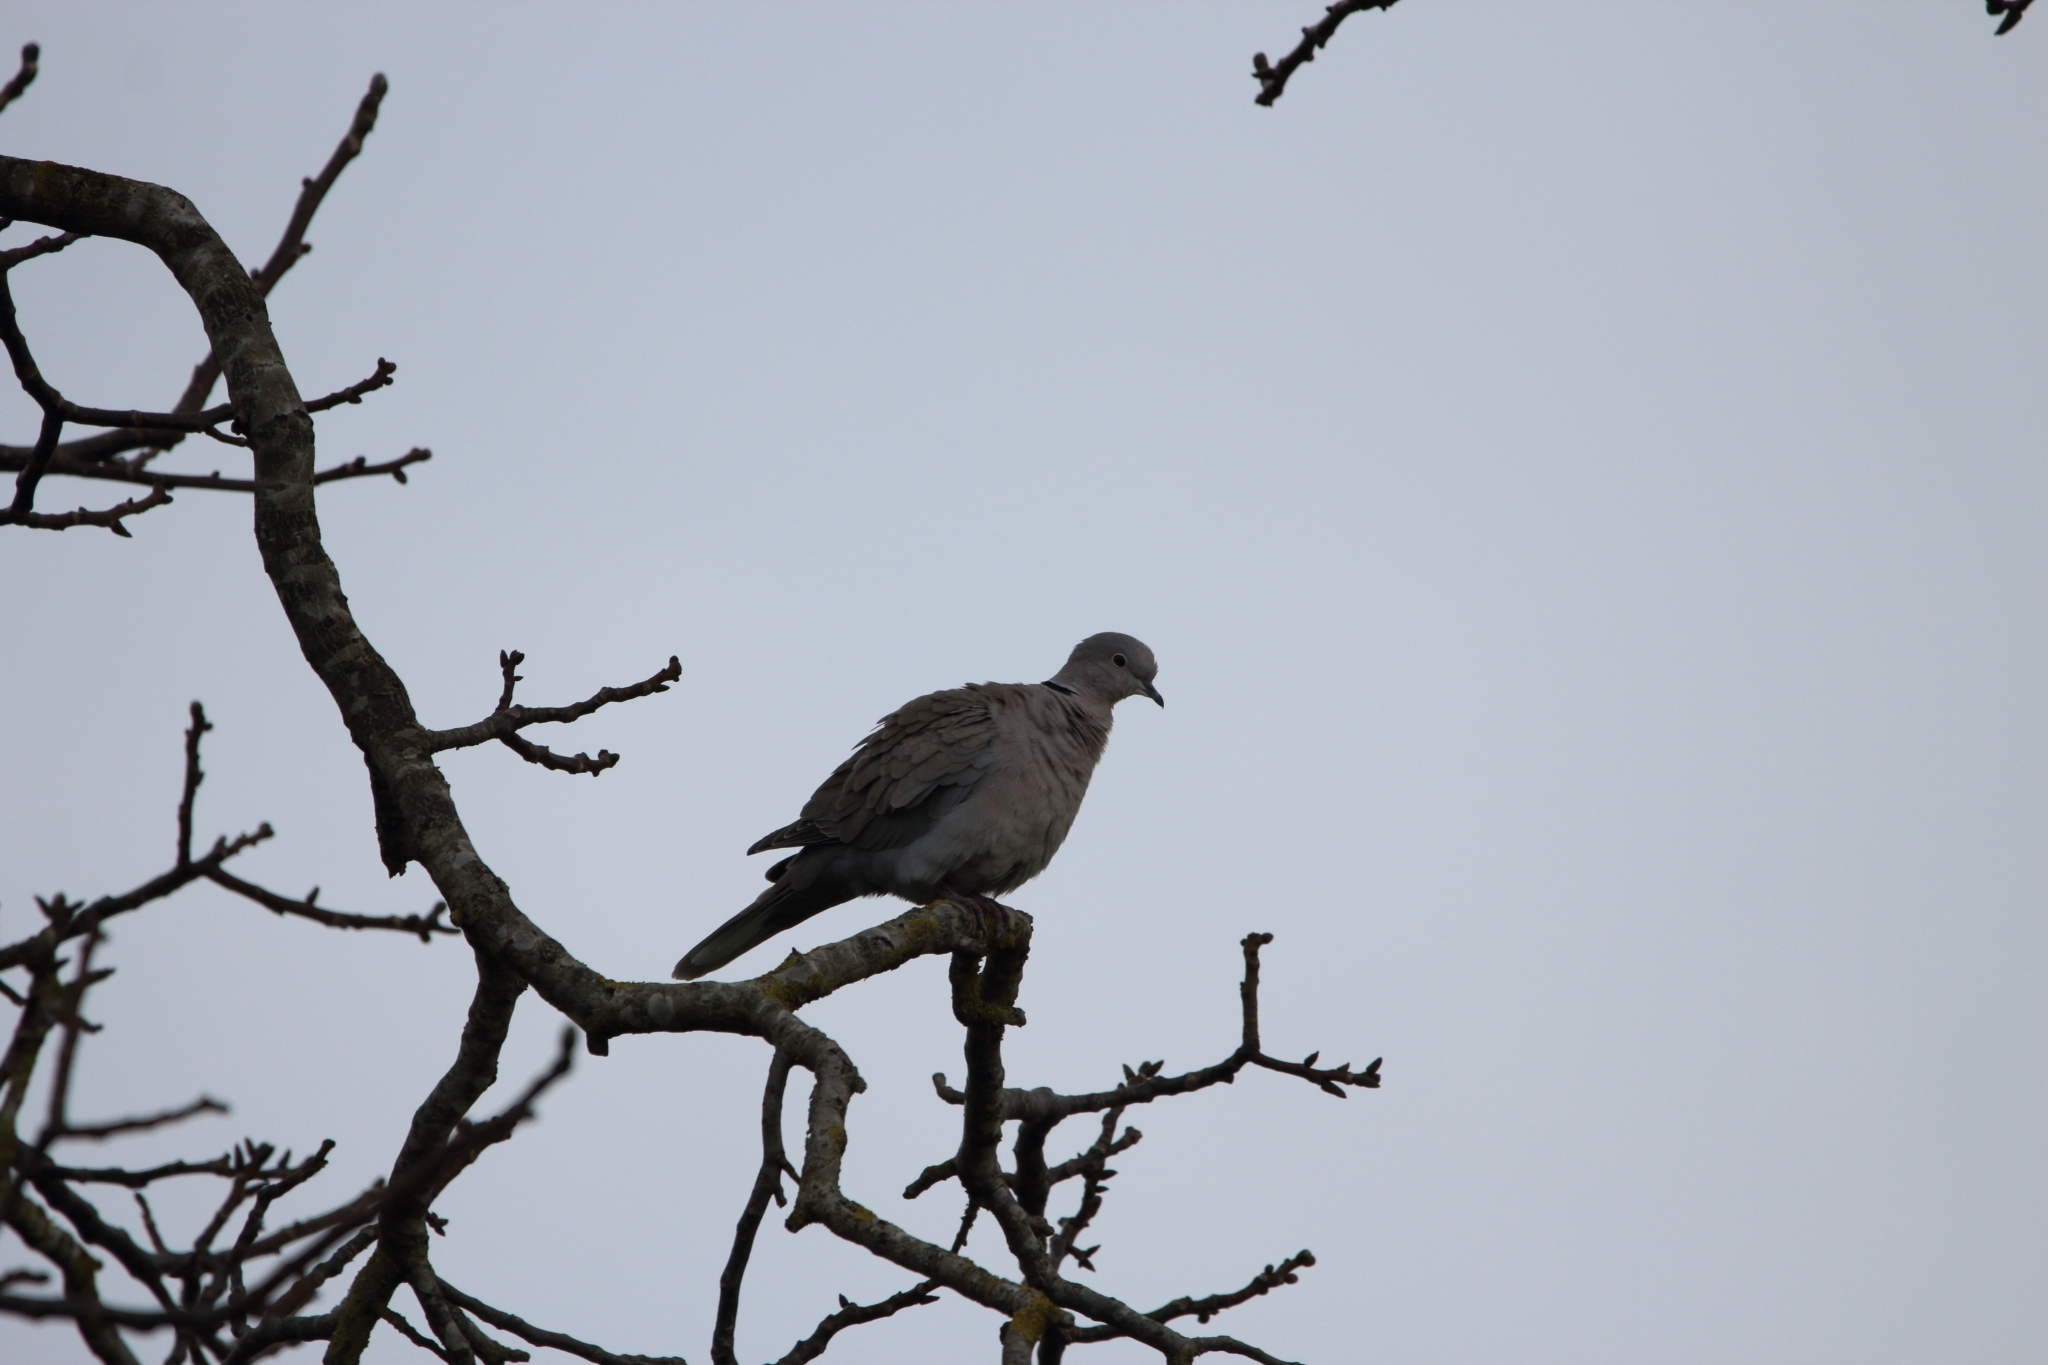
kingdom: Animalia
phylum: Chordata
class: Aves
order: Columbiformes
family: Columbidae
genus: Streptopelia
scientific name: Streptopelia decaocto
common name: Eurasian collared dove
